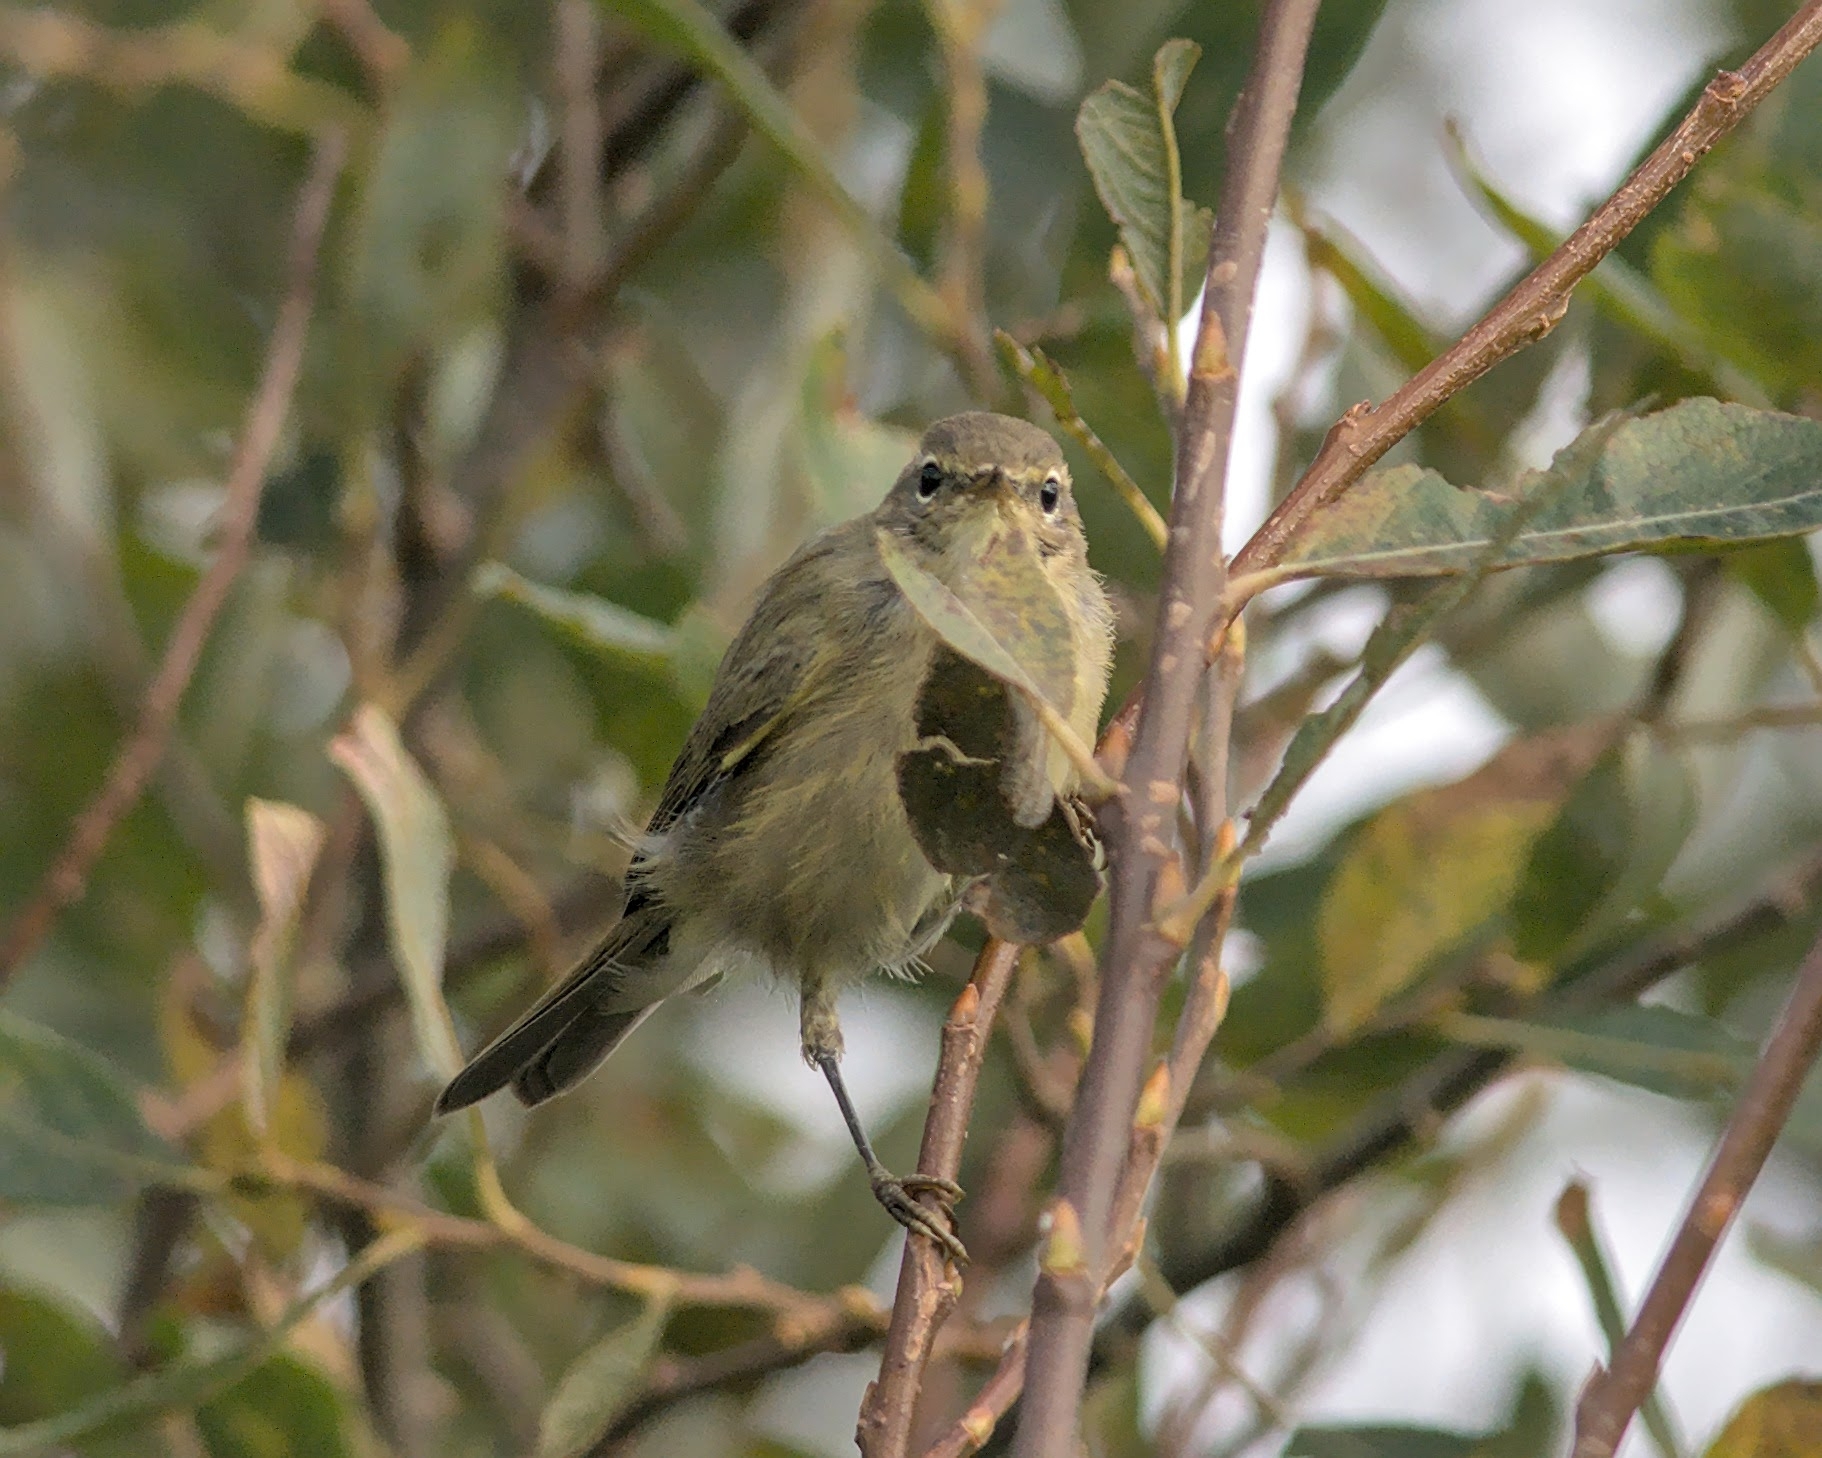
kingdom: Animalia
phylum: Chordata
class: Aves
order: Passeriformes
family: Phylloscopidae
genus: Phylloscopus
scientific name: Phylloscopus collybita
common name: Common chiffchaff
